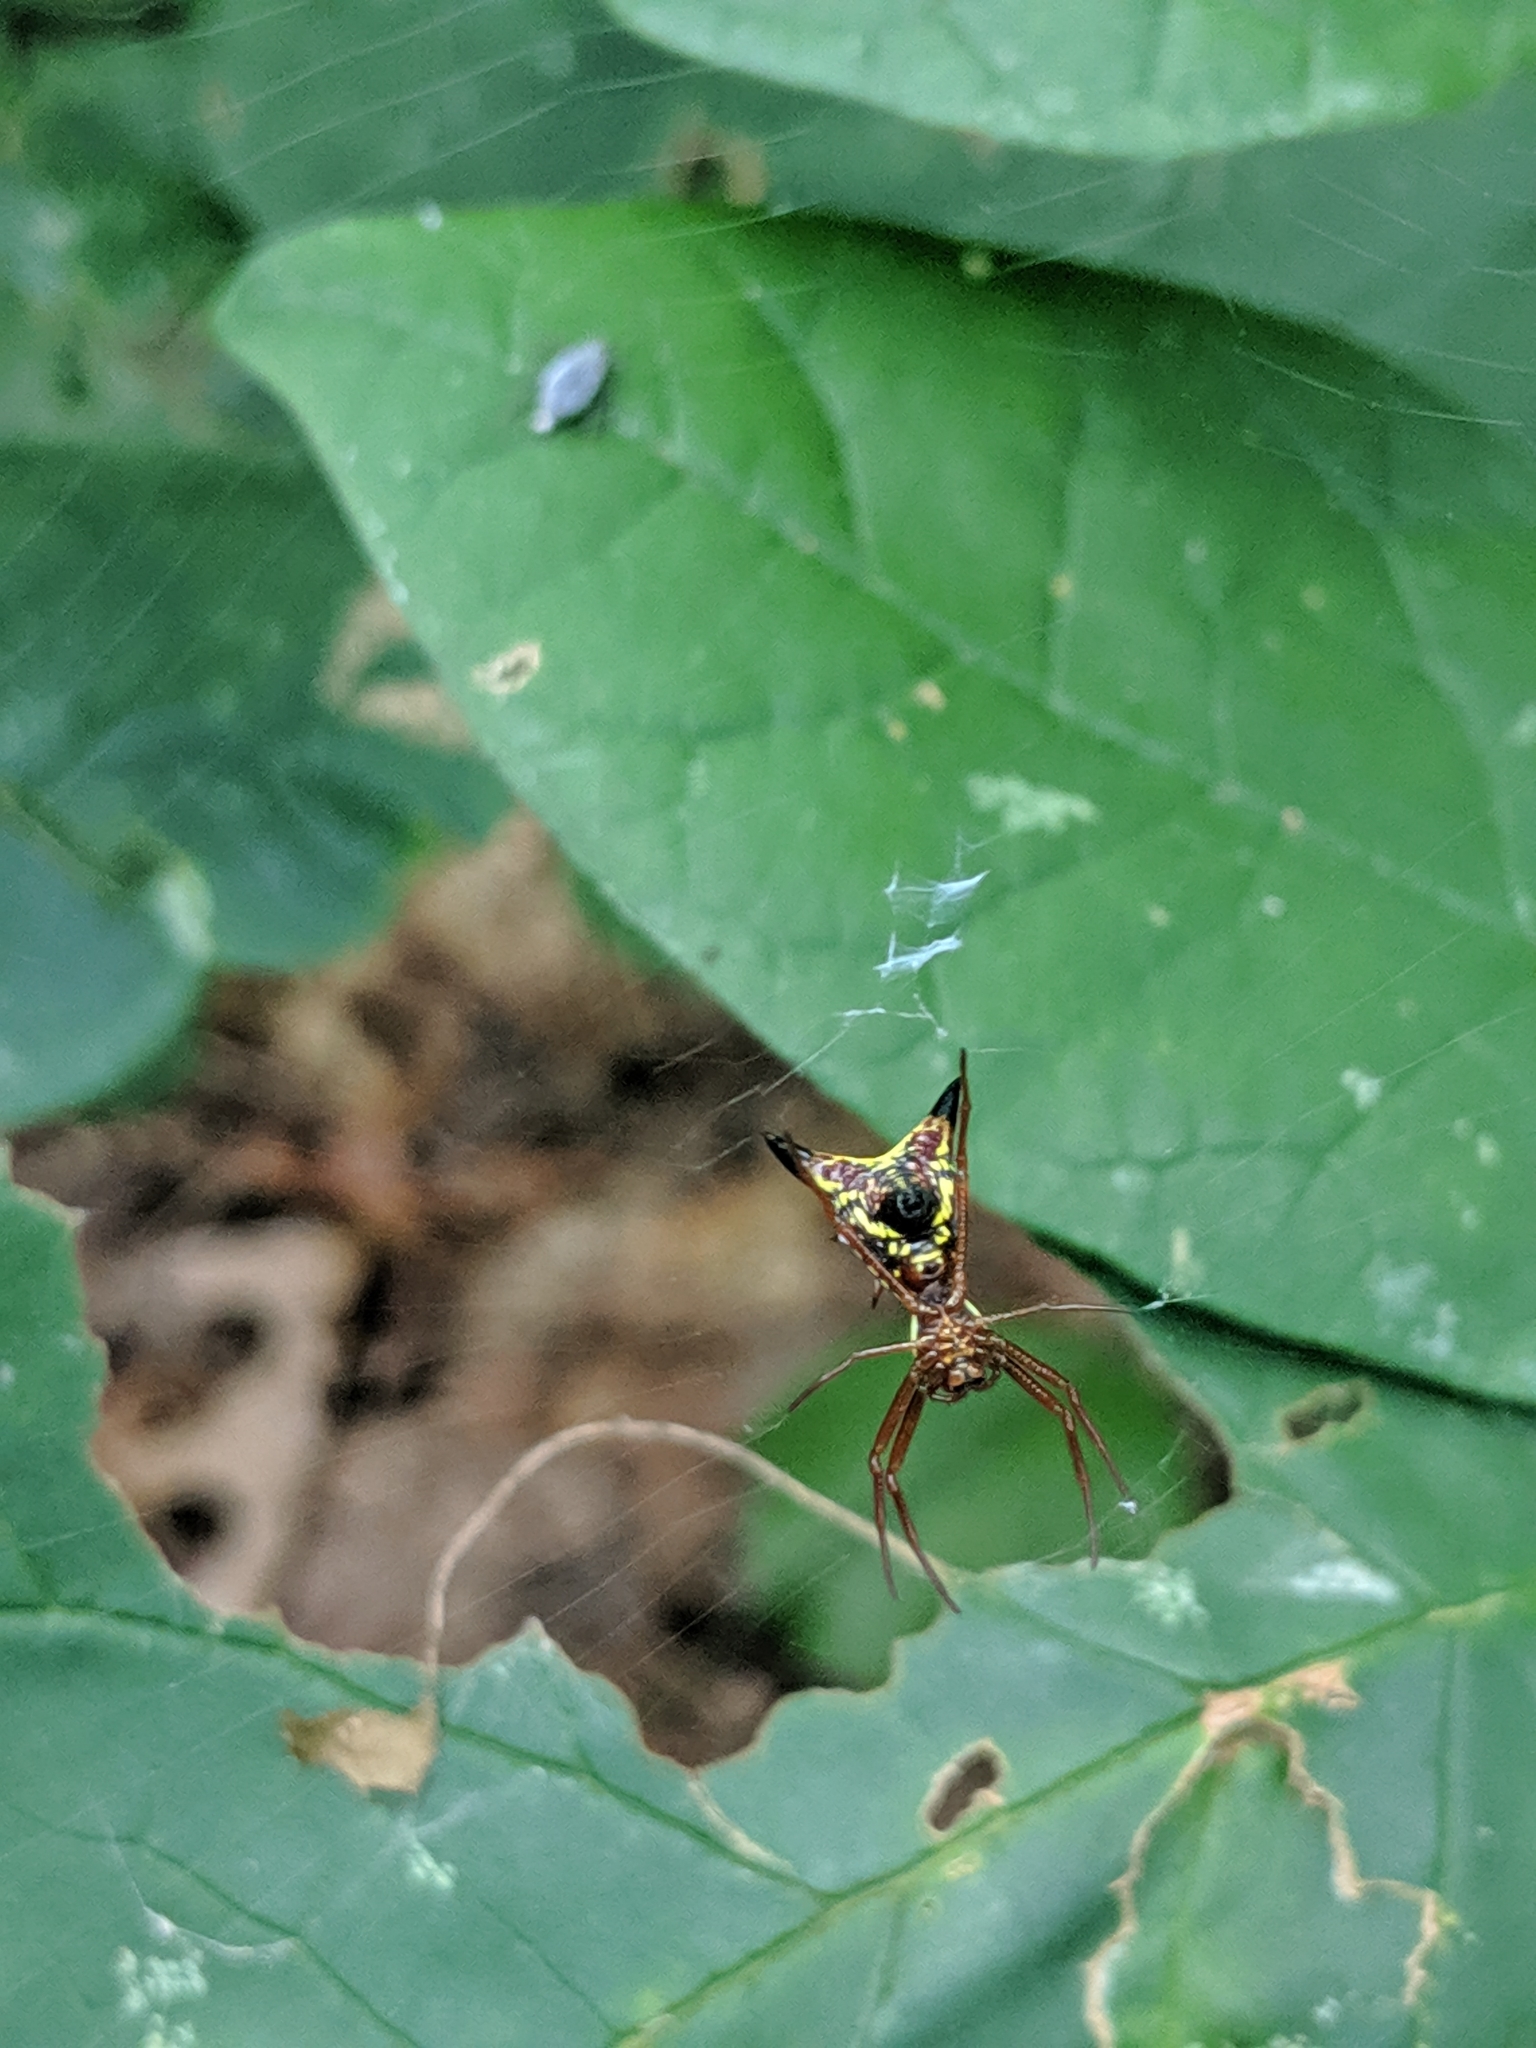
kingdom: Animalia
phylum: Arthropoda
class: Arachnida
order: Araneae
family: Araneidae
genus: Micrathena
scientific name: Micrathena sagittata
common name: Orb weavers
